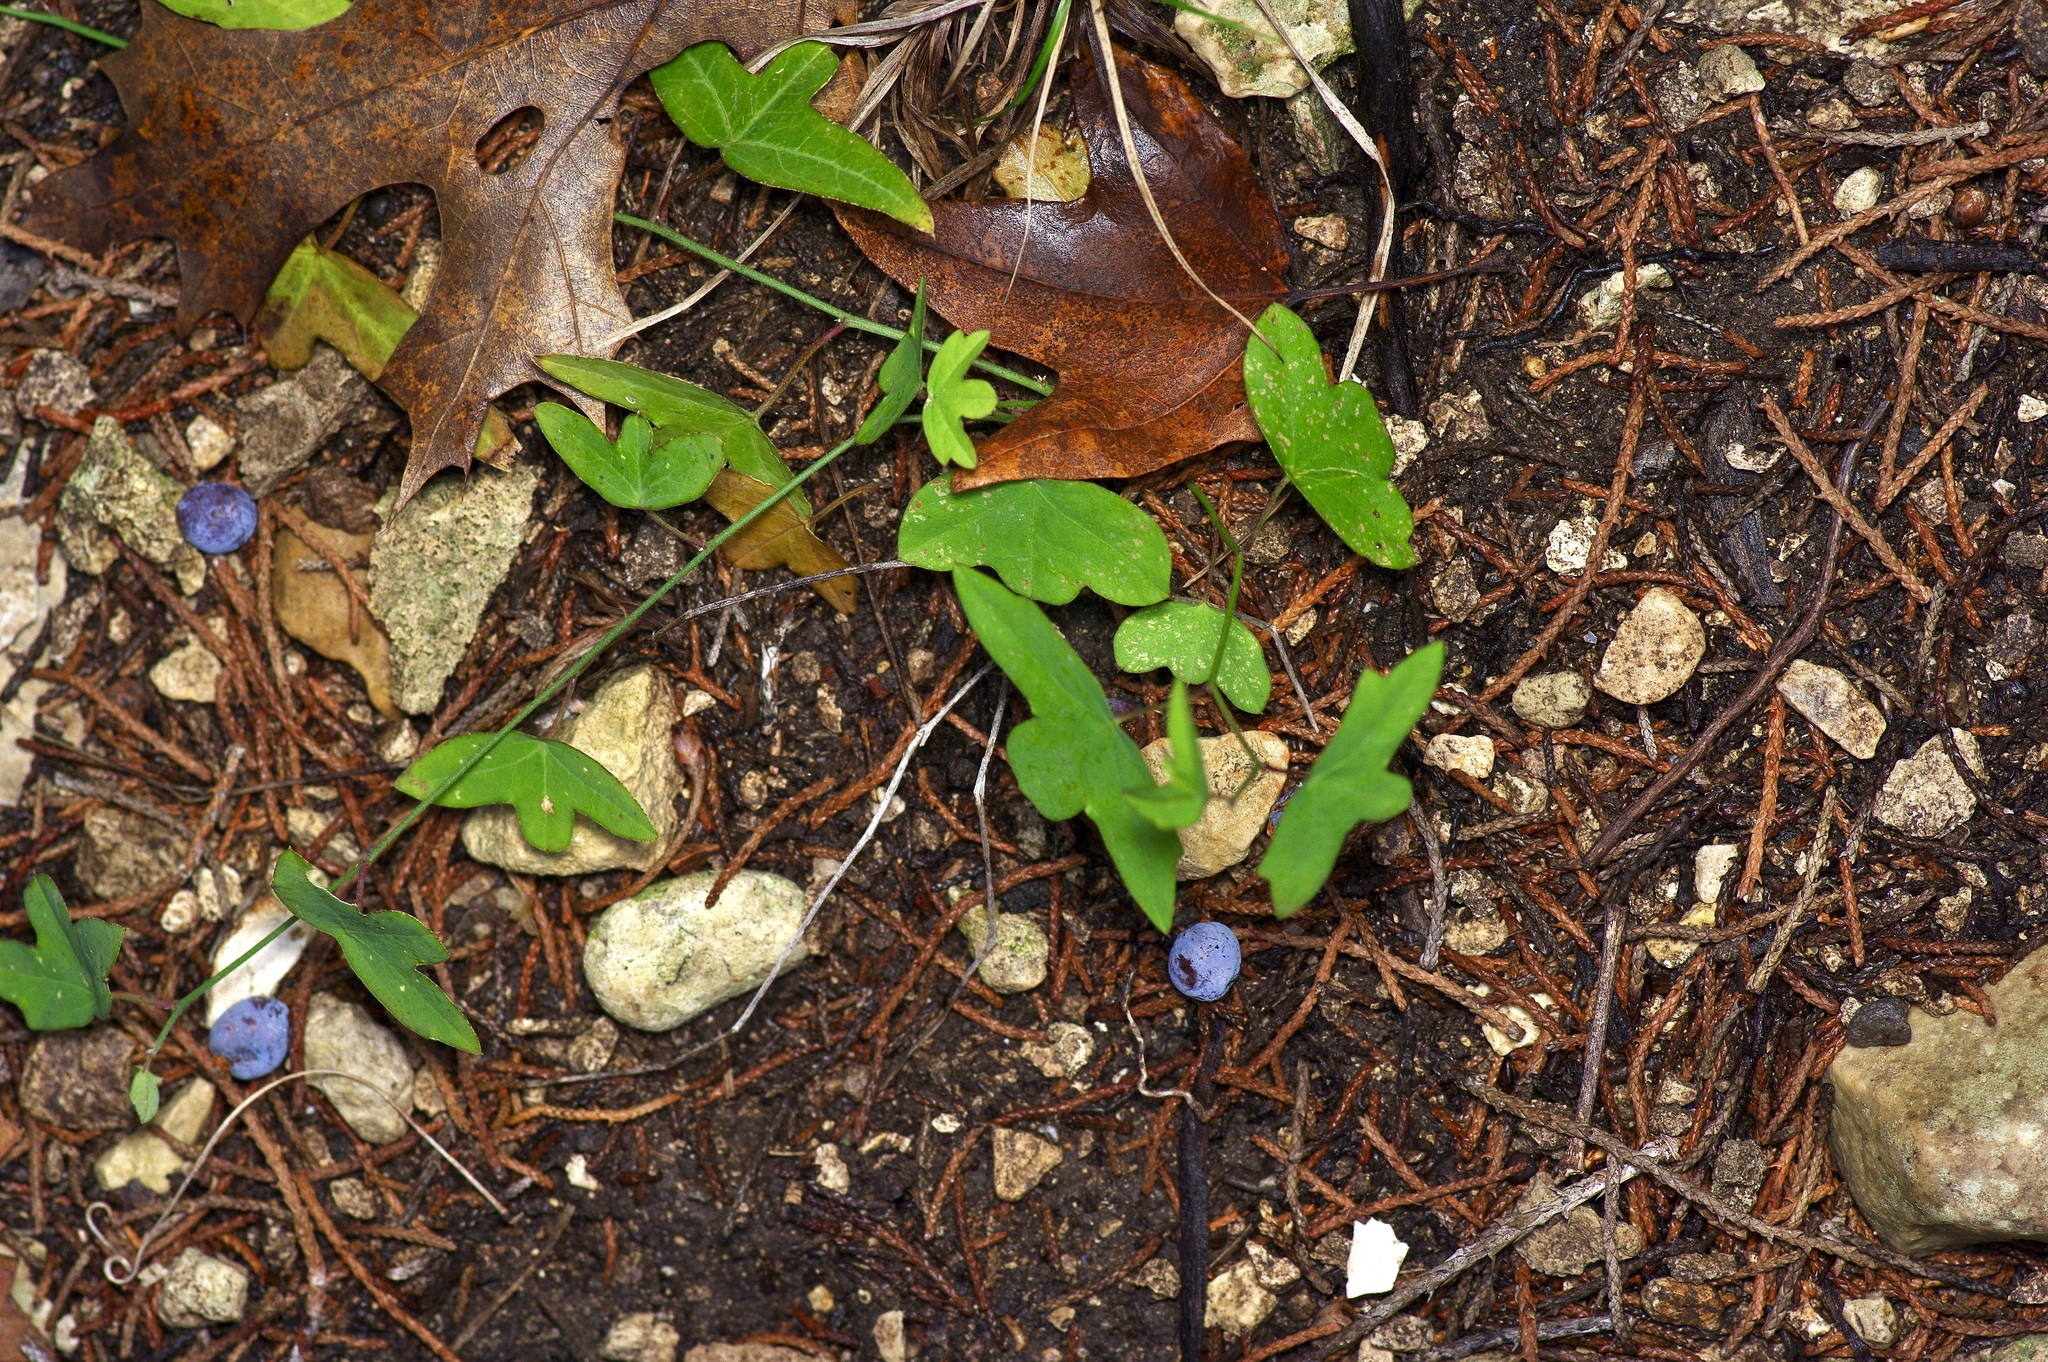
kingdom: Plantae
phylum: Tracheophyta
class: Magnoliopsida
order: Malpighiales
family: Passifloraceae
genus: Passiflora
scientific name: Passiflora tenuiloba
